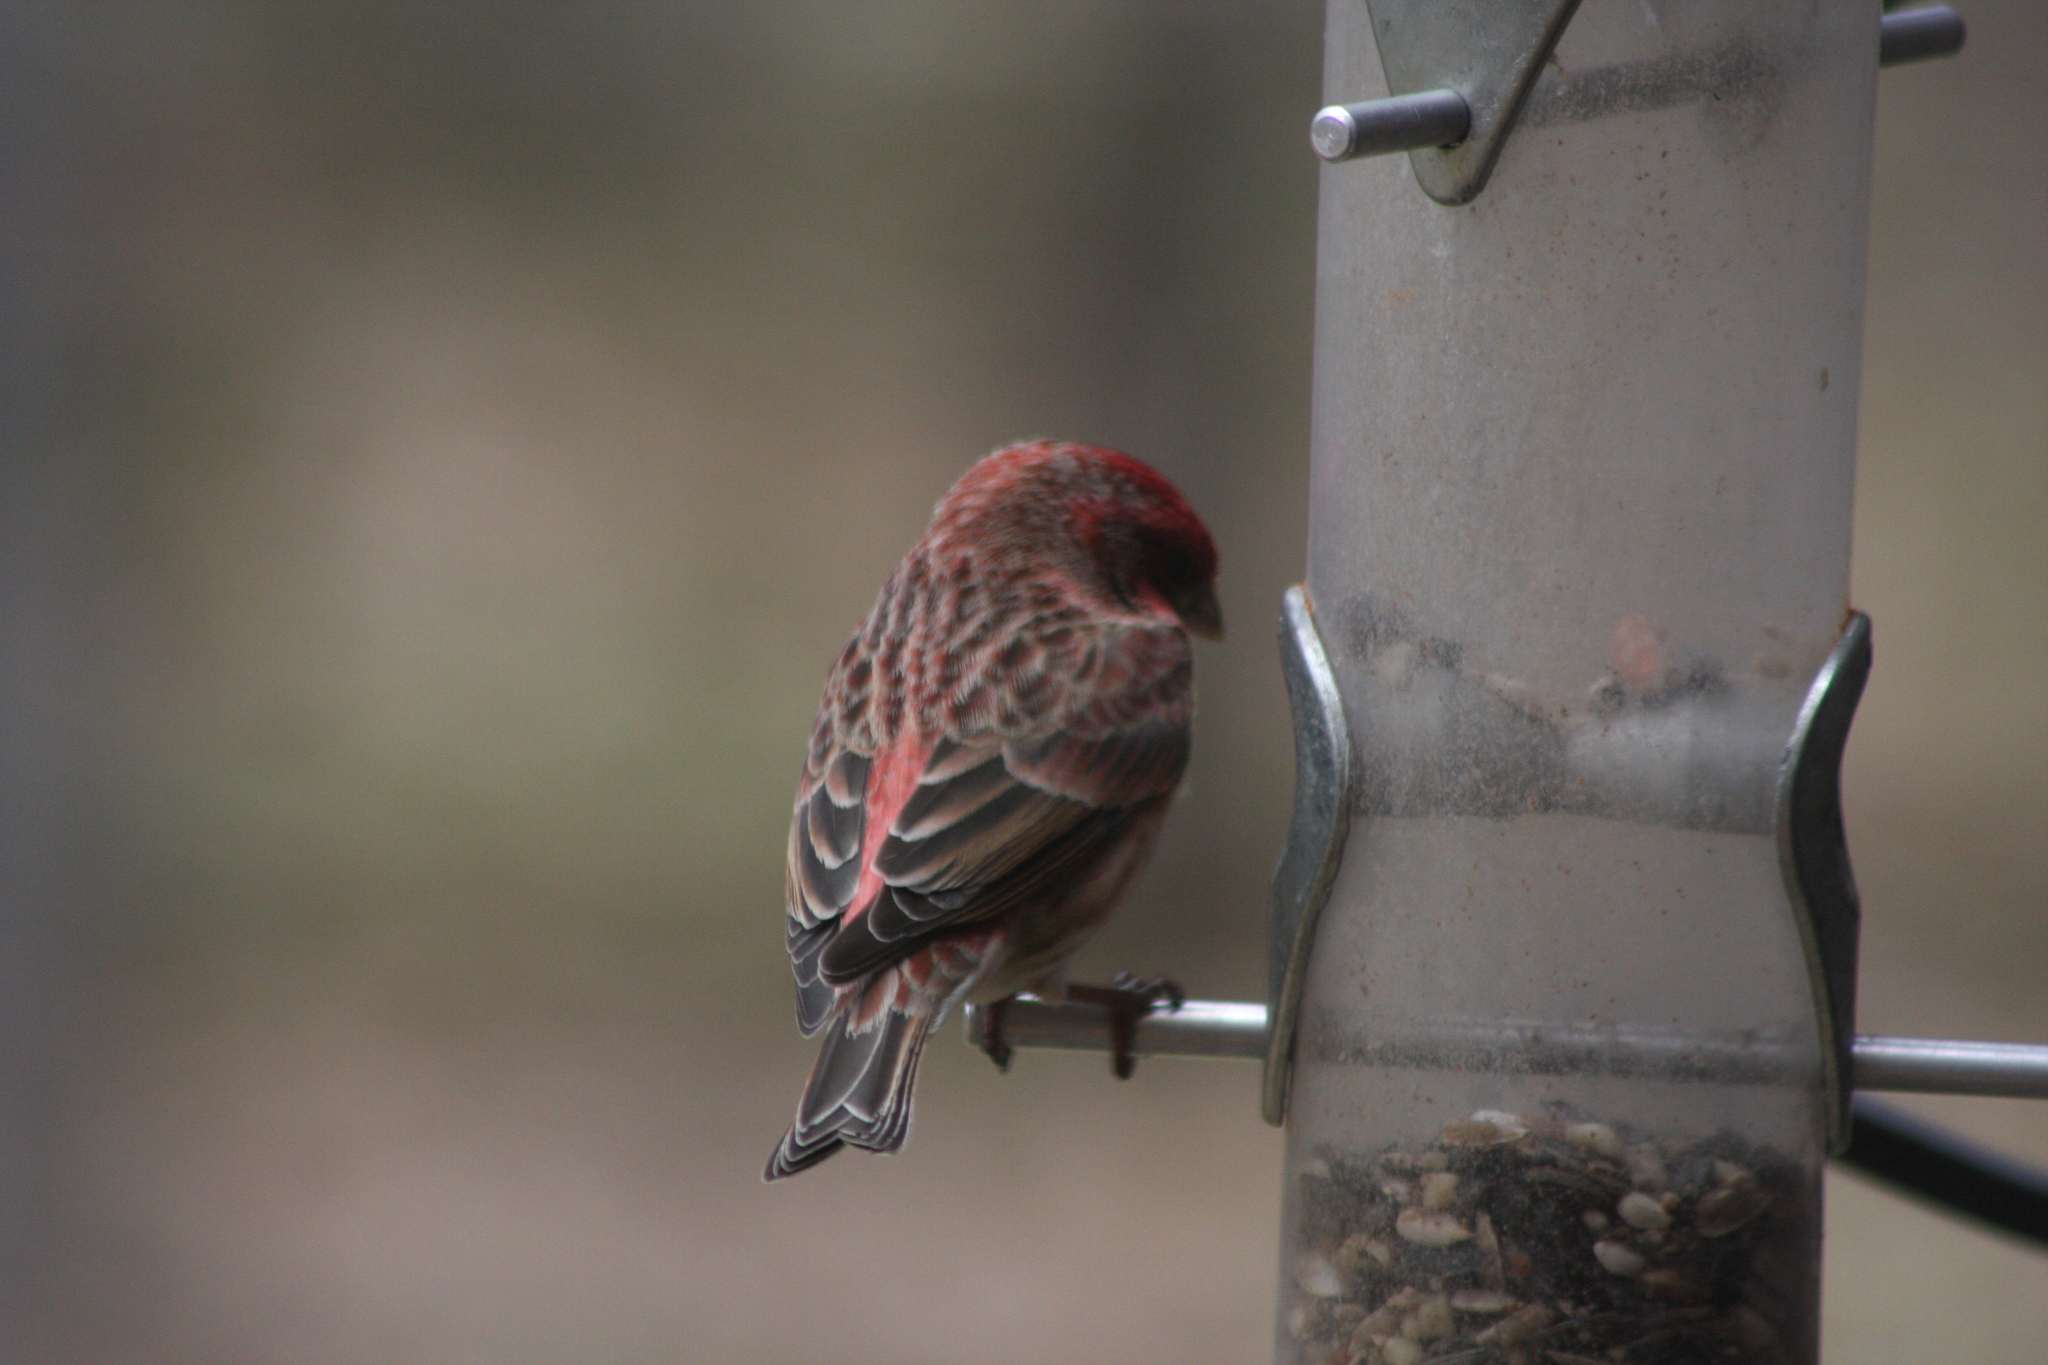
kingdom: Animalia
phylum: Chordata
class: Aves
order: Passeriformes
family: Fringillidae
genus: Haemorhous
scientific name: Haemorhous purpureus
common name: Purple finch
